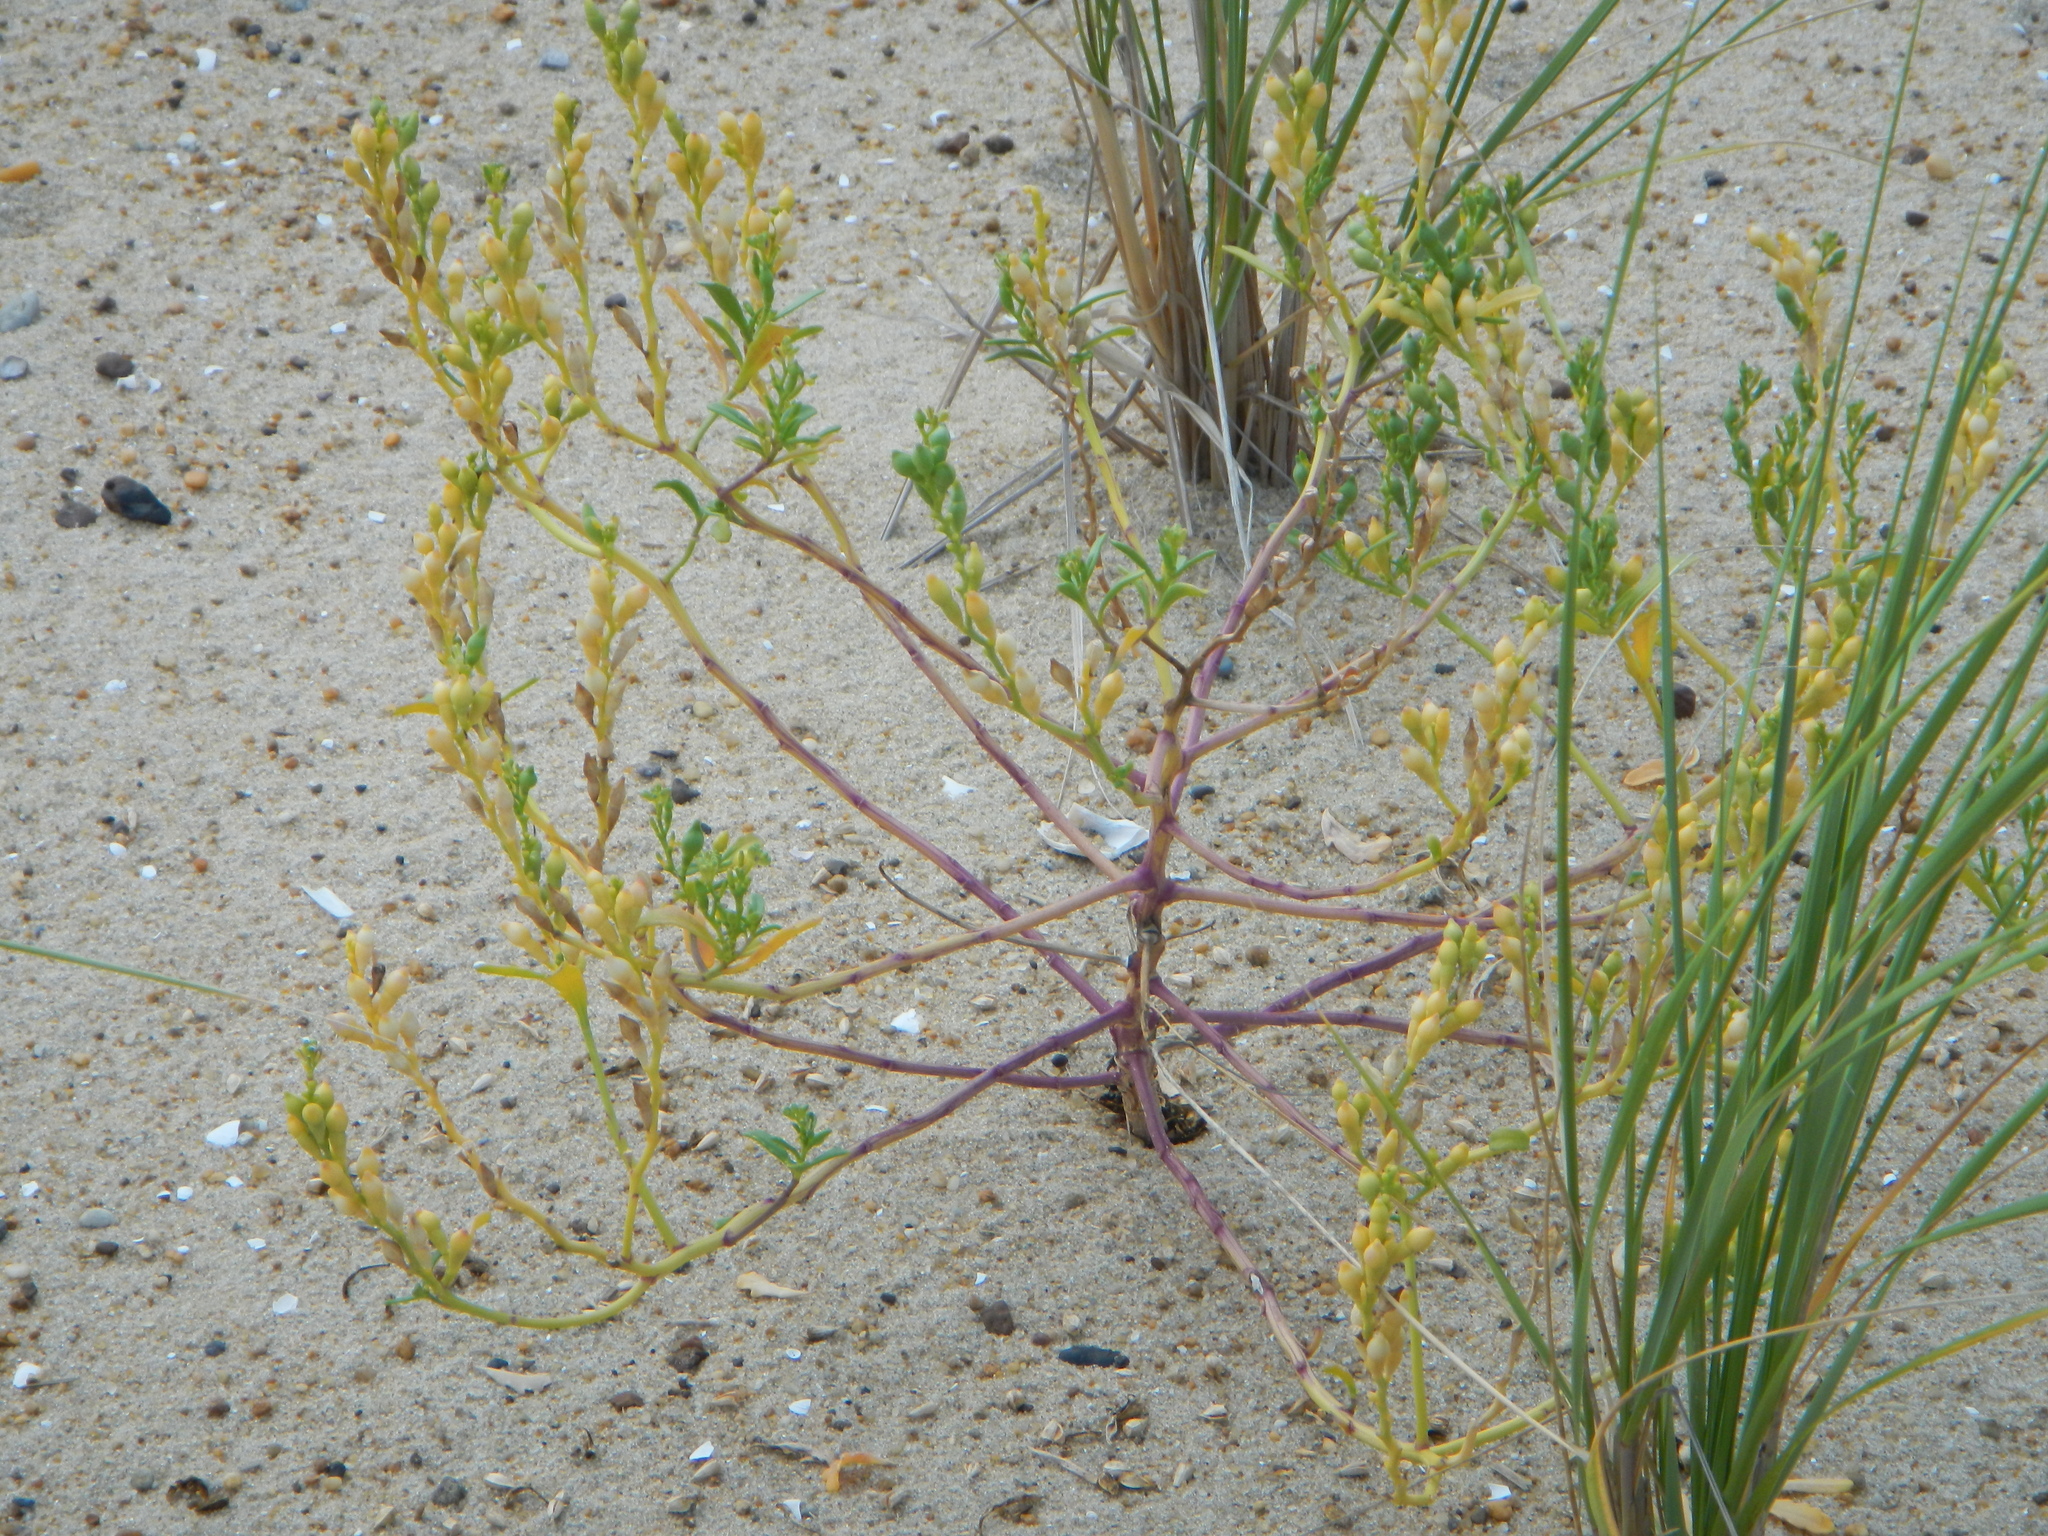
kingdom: Plantae
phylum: Tracheophyta
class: Magnoliopsida
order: Brassicales
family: Brassicaceae
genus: Cakile
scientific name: Cakile edentula
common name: American sea rocket
